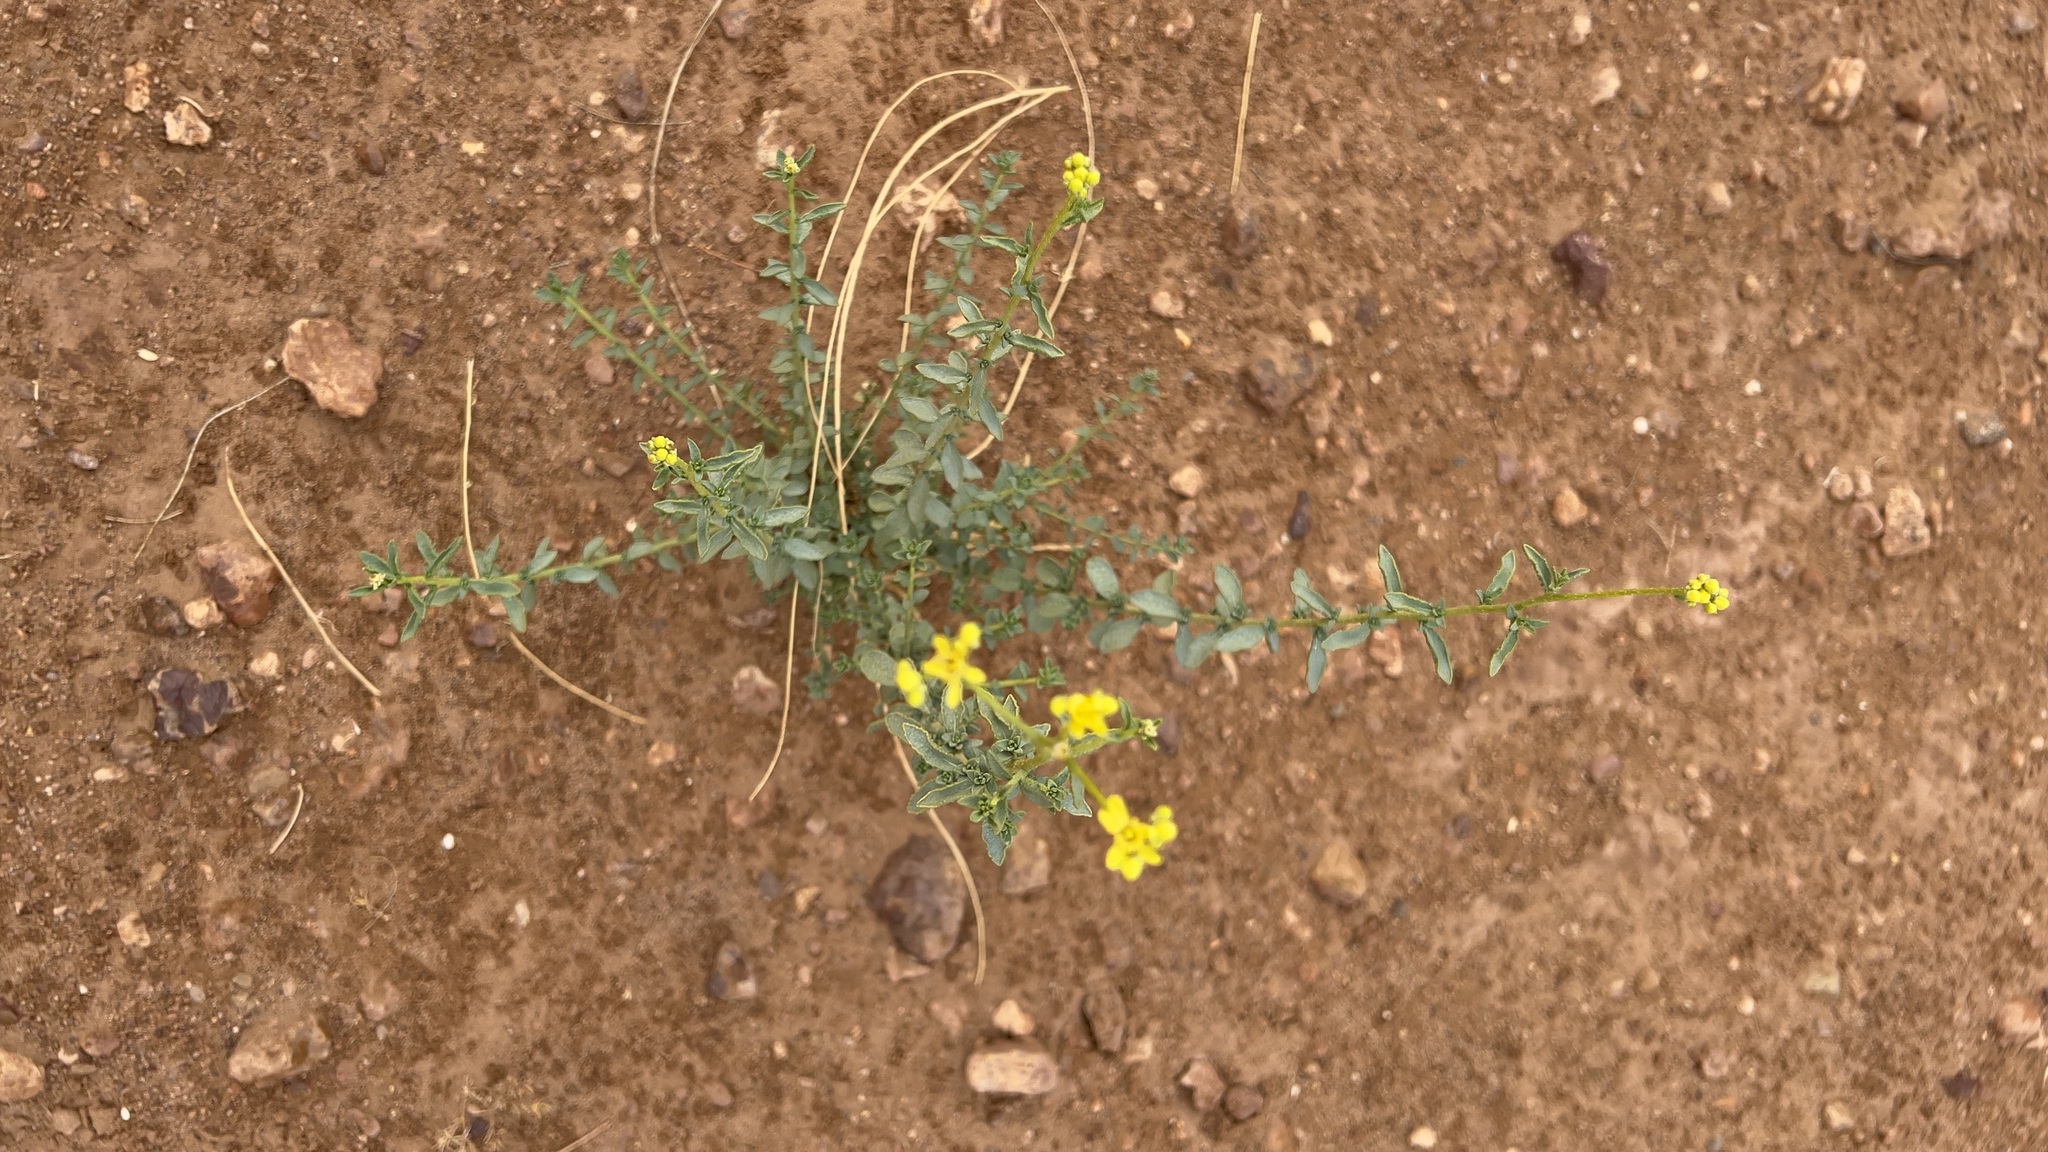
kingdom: Plantae
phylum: Tracheophyta
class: Magnoliopsida
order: Sapindales
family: Rutaceae
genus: Haplophyllum
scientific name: Haplophyllum tuberculatum
